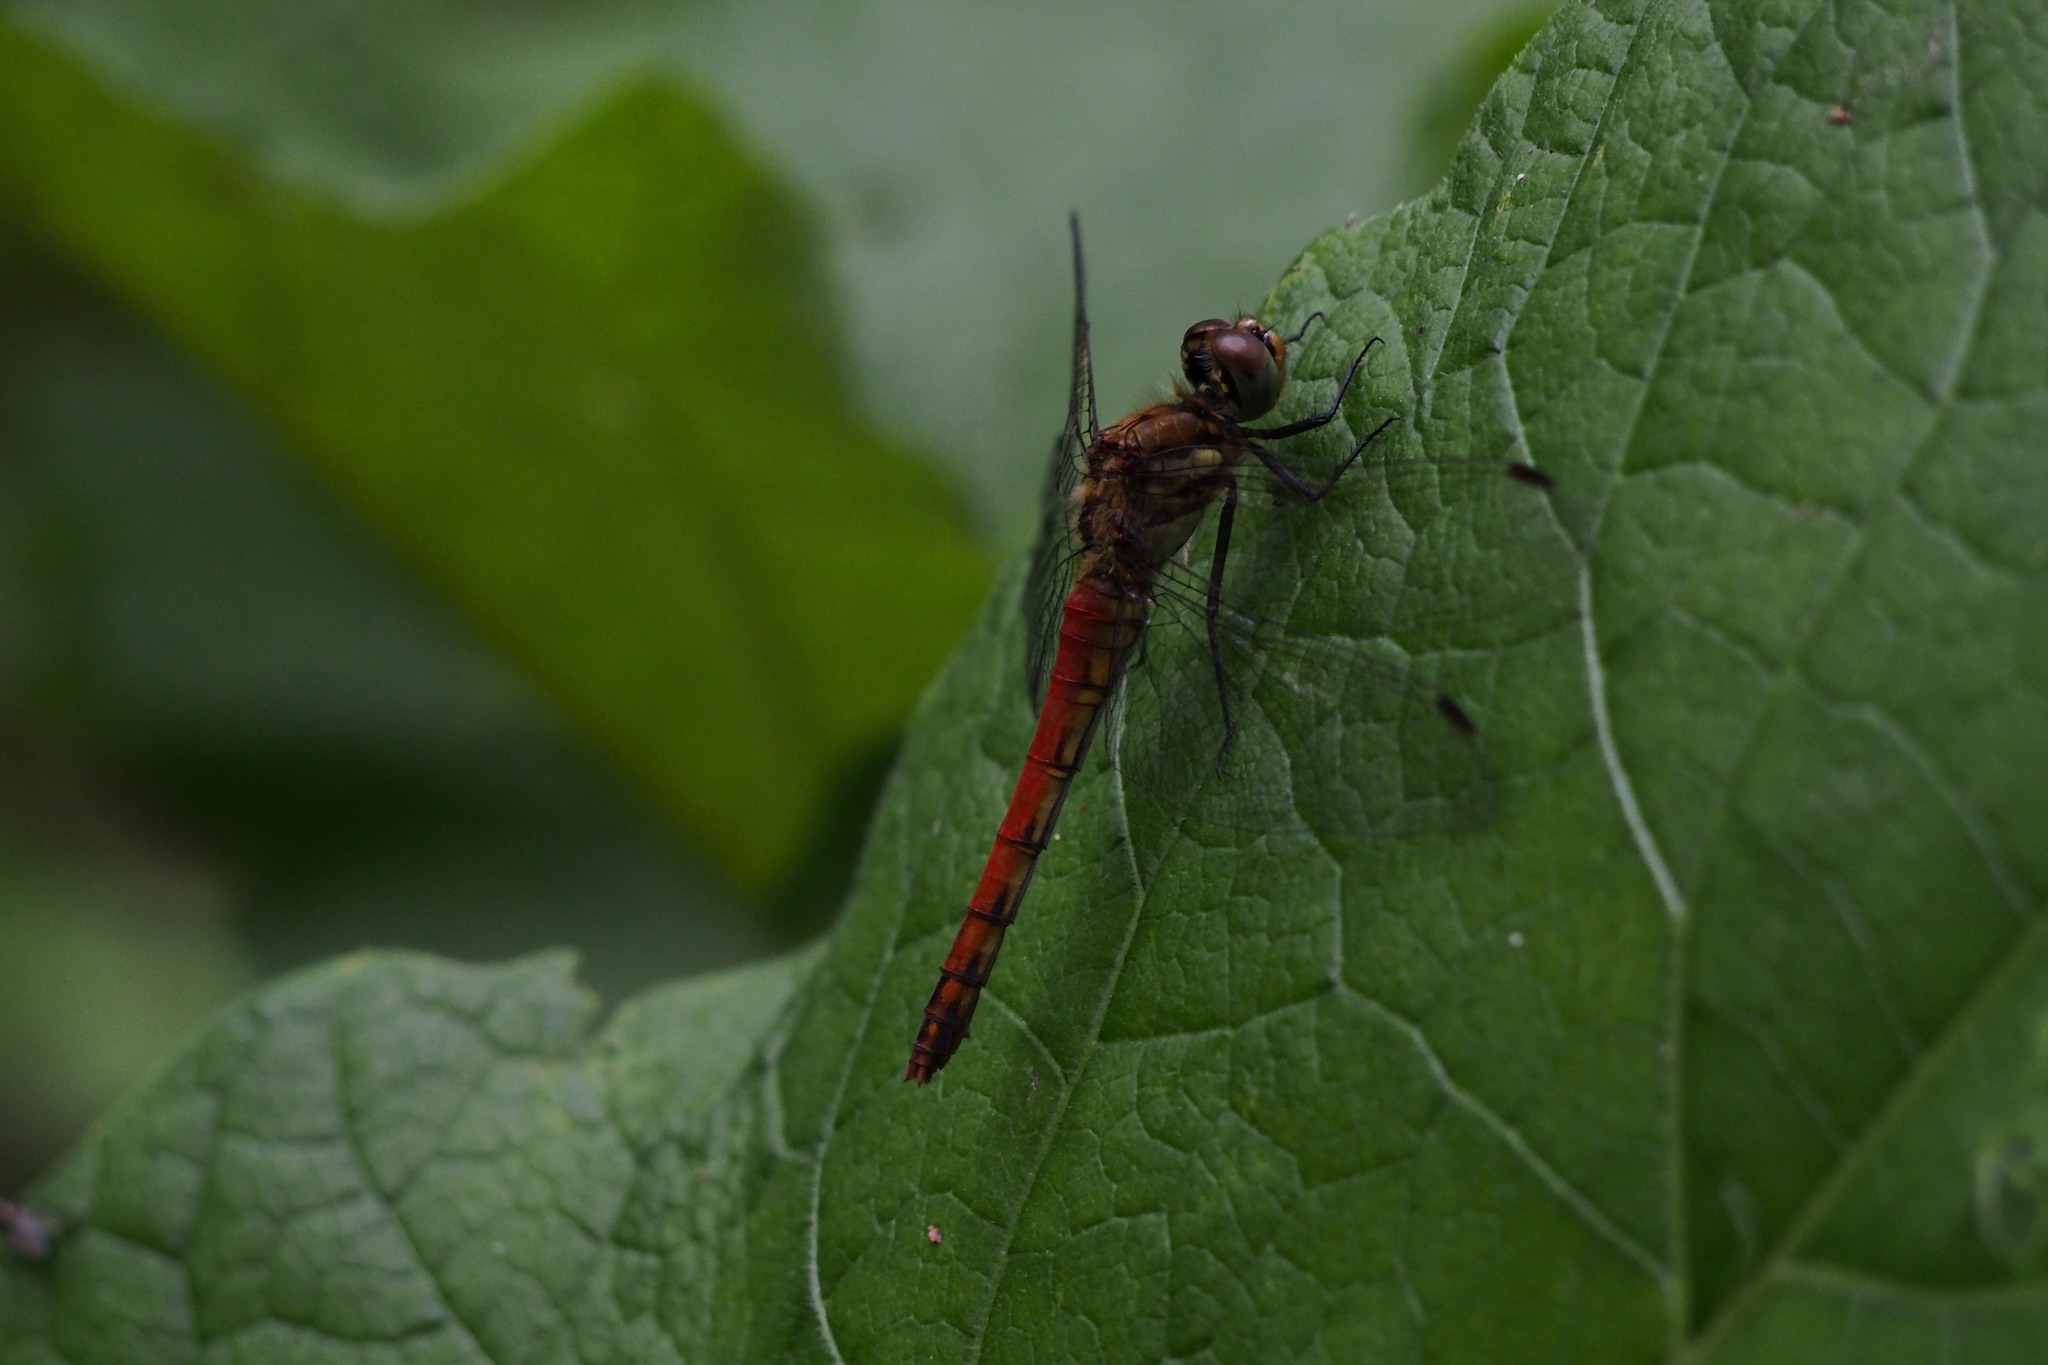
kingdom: Animalia
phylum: Arthropoda
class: Insecta
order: Odonata
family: Libellulidae
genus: Sympetrum
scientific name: Sympetrum frequens
